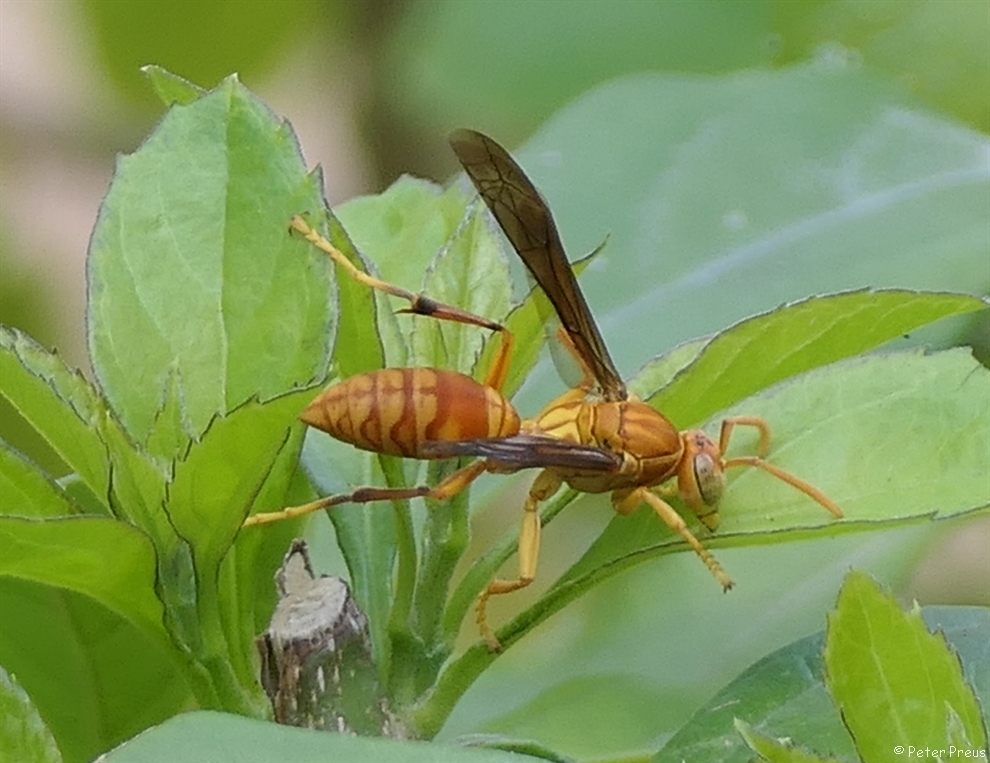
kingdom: Animalia
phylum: Arthropoda
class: Insecta
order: Hymenoptera
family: Eumenidae
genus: Polistes
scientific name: Polistes wattii
